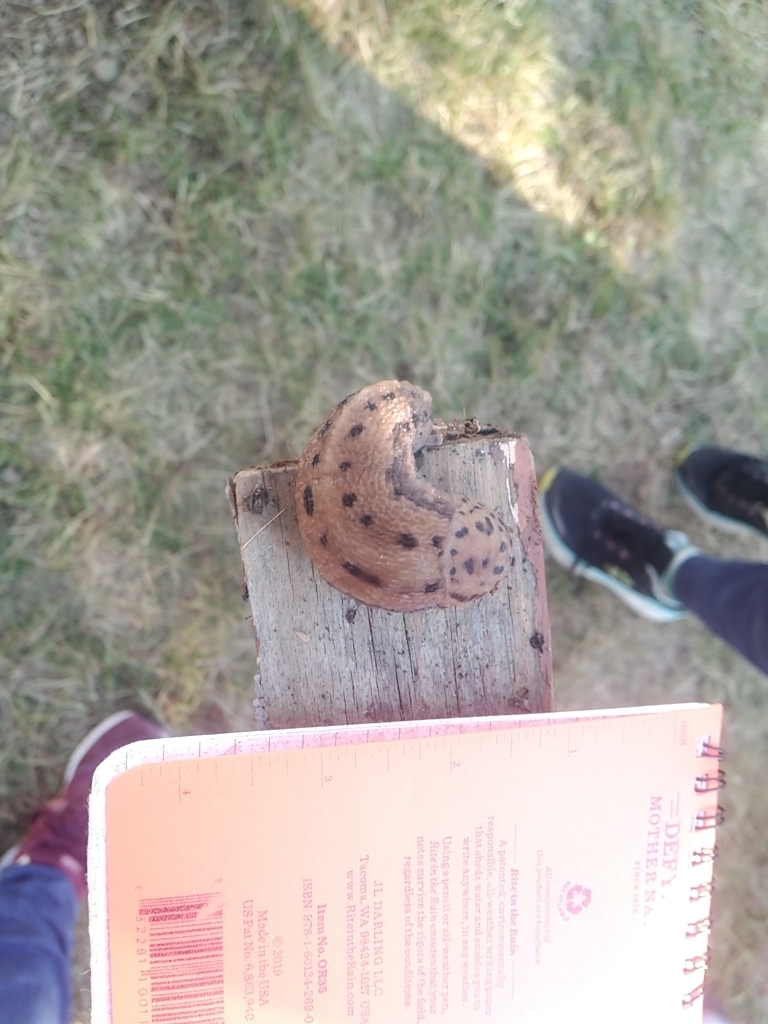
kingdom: Animalia
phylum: Mollusca
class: Gastropoda
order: Stylommatophora
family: Limacidae
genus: Limax
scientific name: Limax maximus
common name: Great grey slug
